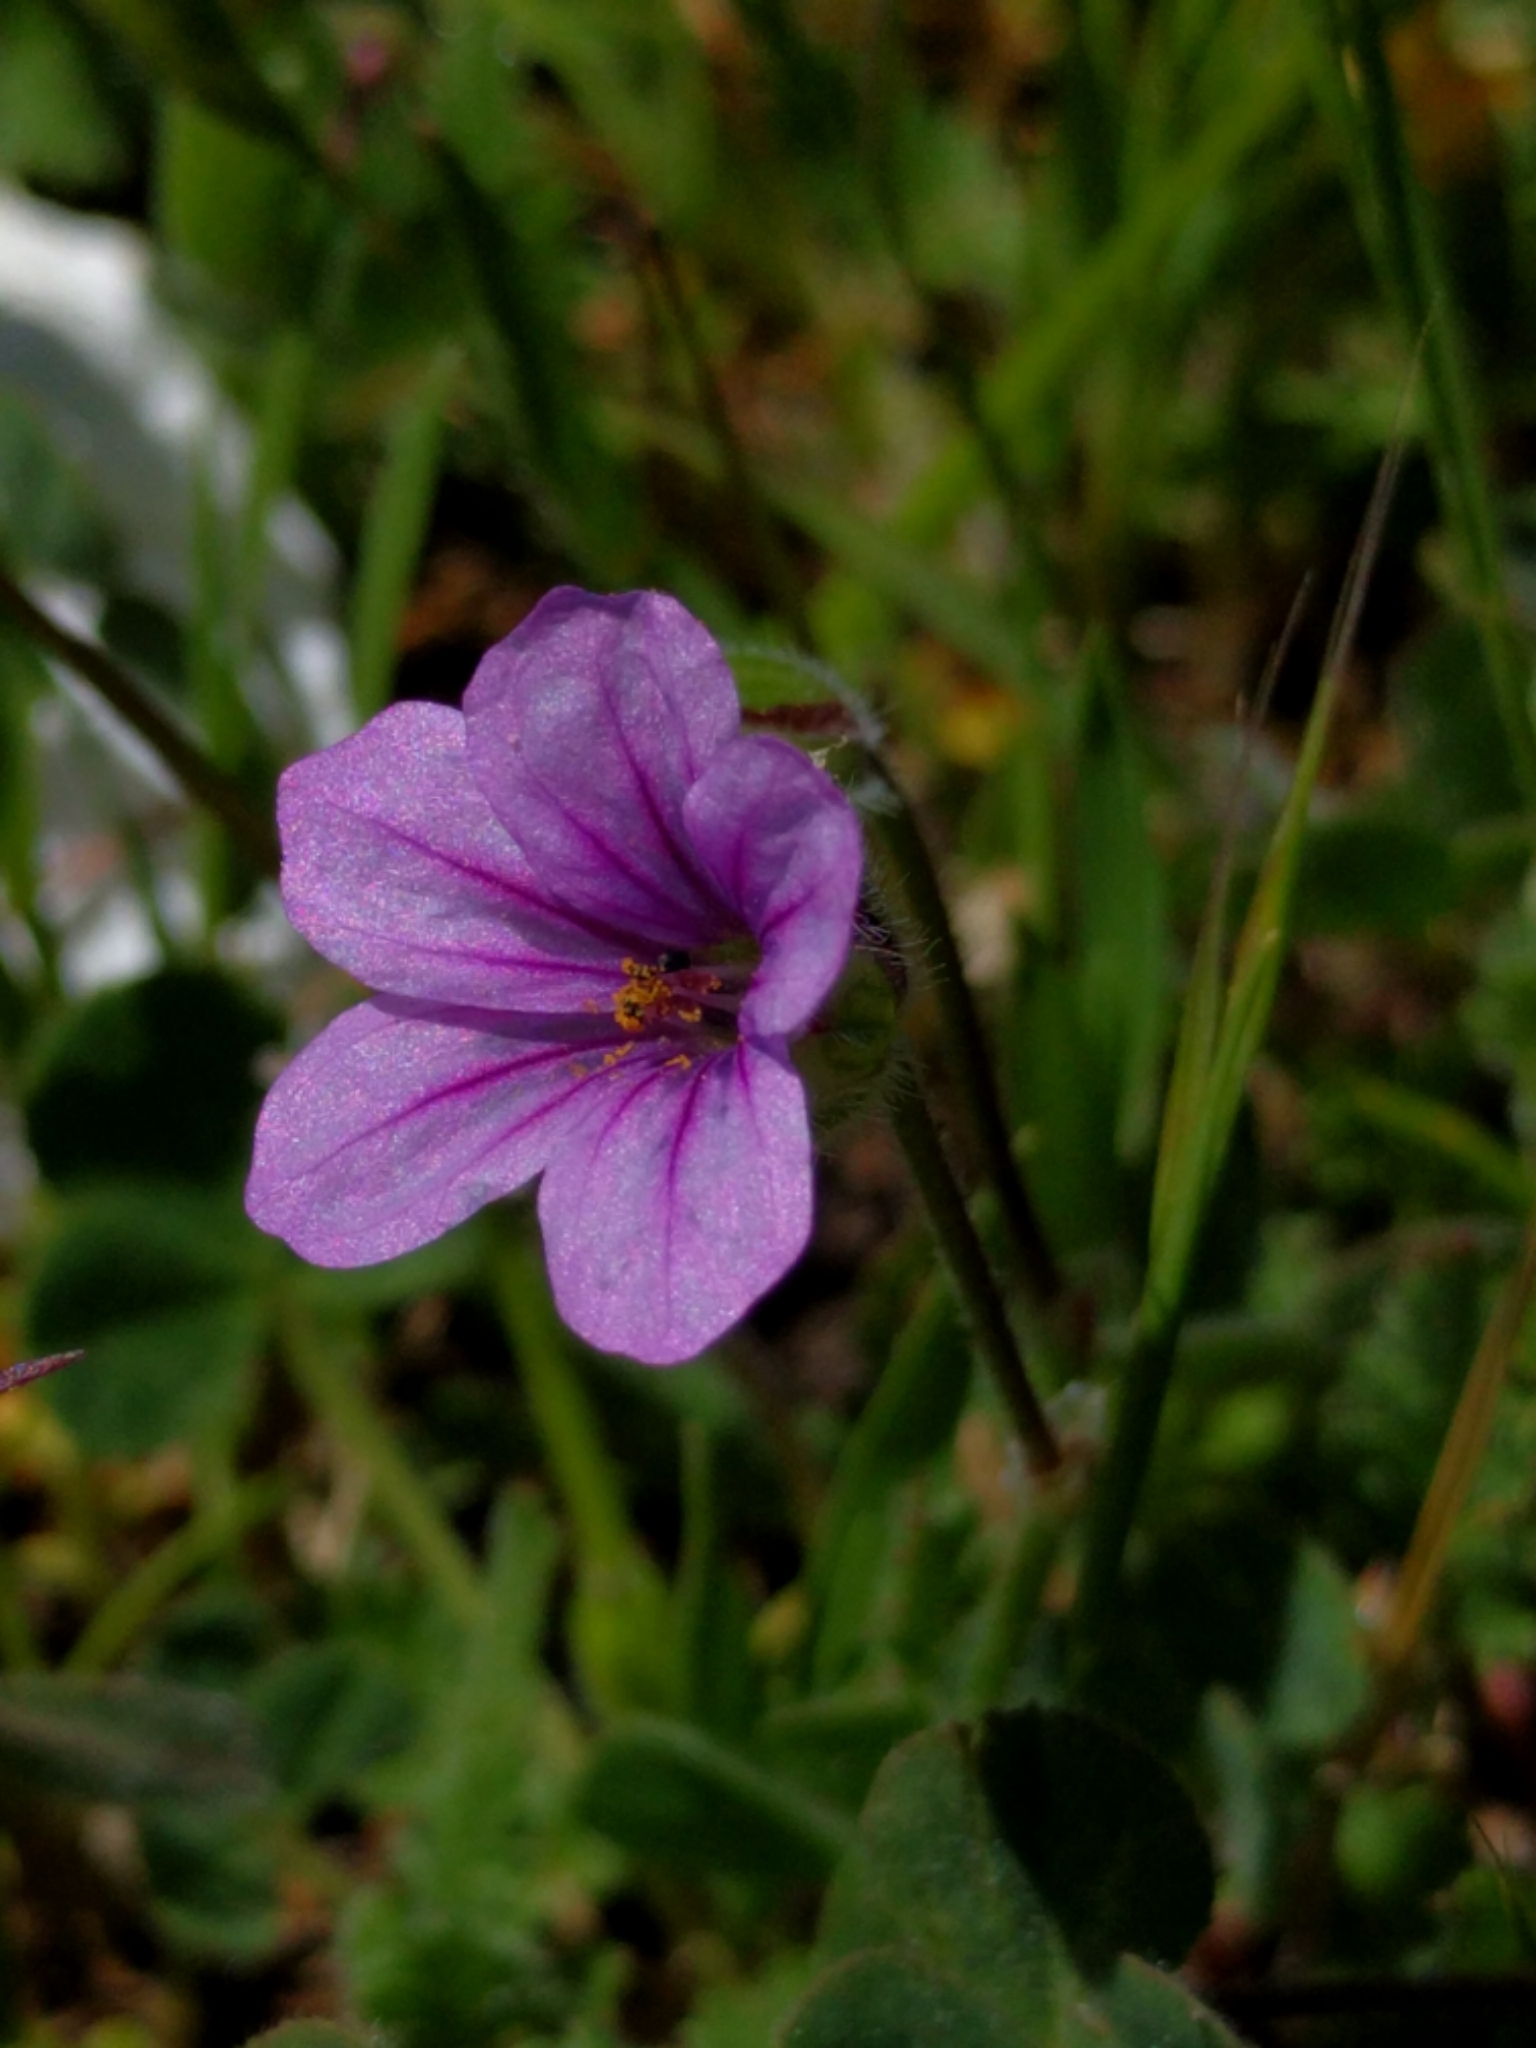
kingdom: Plantae
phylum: Tracheophyta
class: Magnoliopsida
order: Geraniales
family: Geraniaceae
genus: Erodium
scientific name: Erodium botrys
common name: Mediterranean stork's-bill
